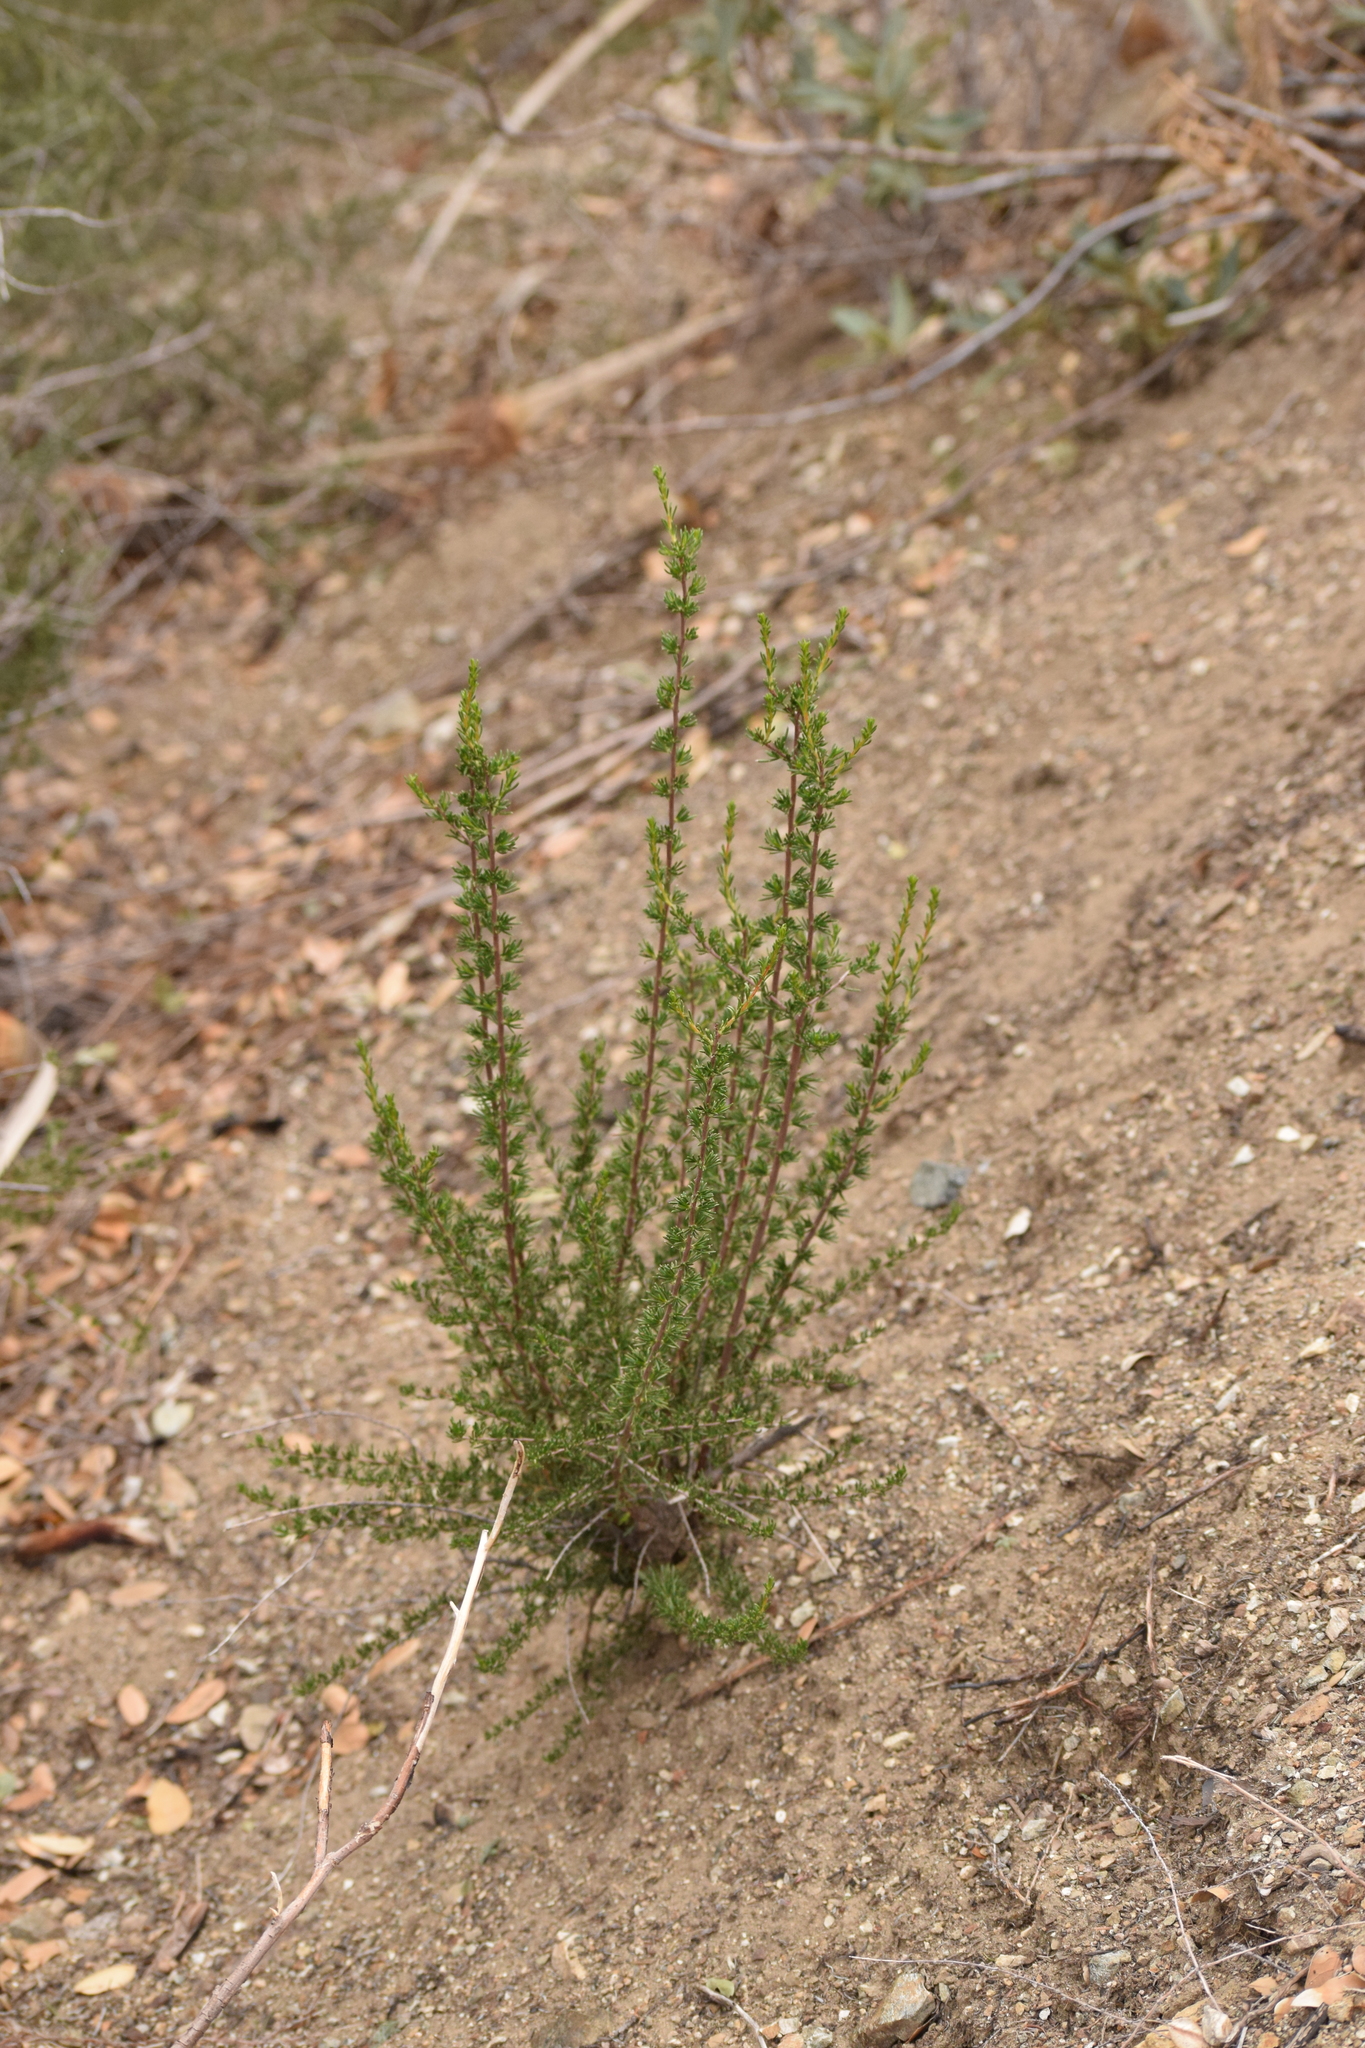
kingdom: Plantae
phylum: Tracheophyta
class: Magnoliopsida
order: Rosales
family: Rosaceae
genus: Adenostoma
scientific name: Adenostoma fasciculatum
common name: Chamise
